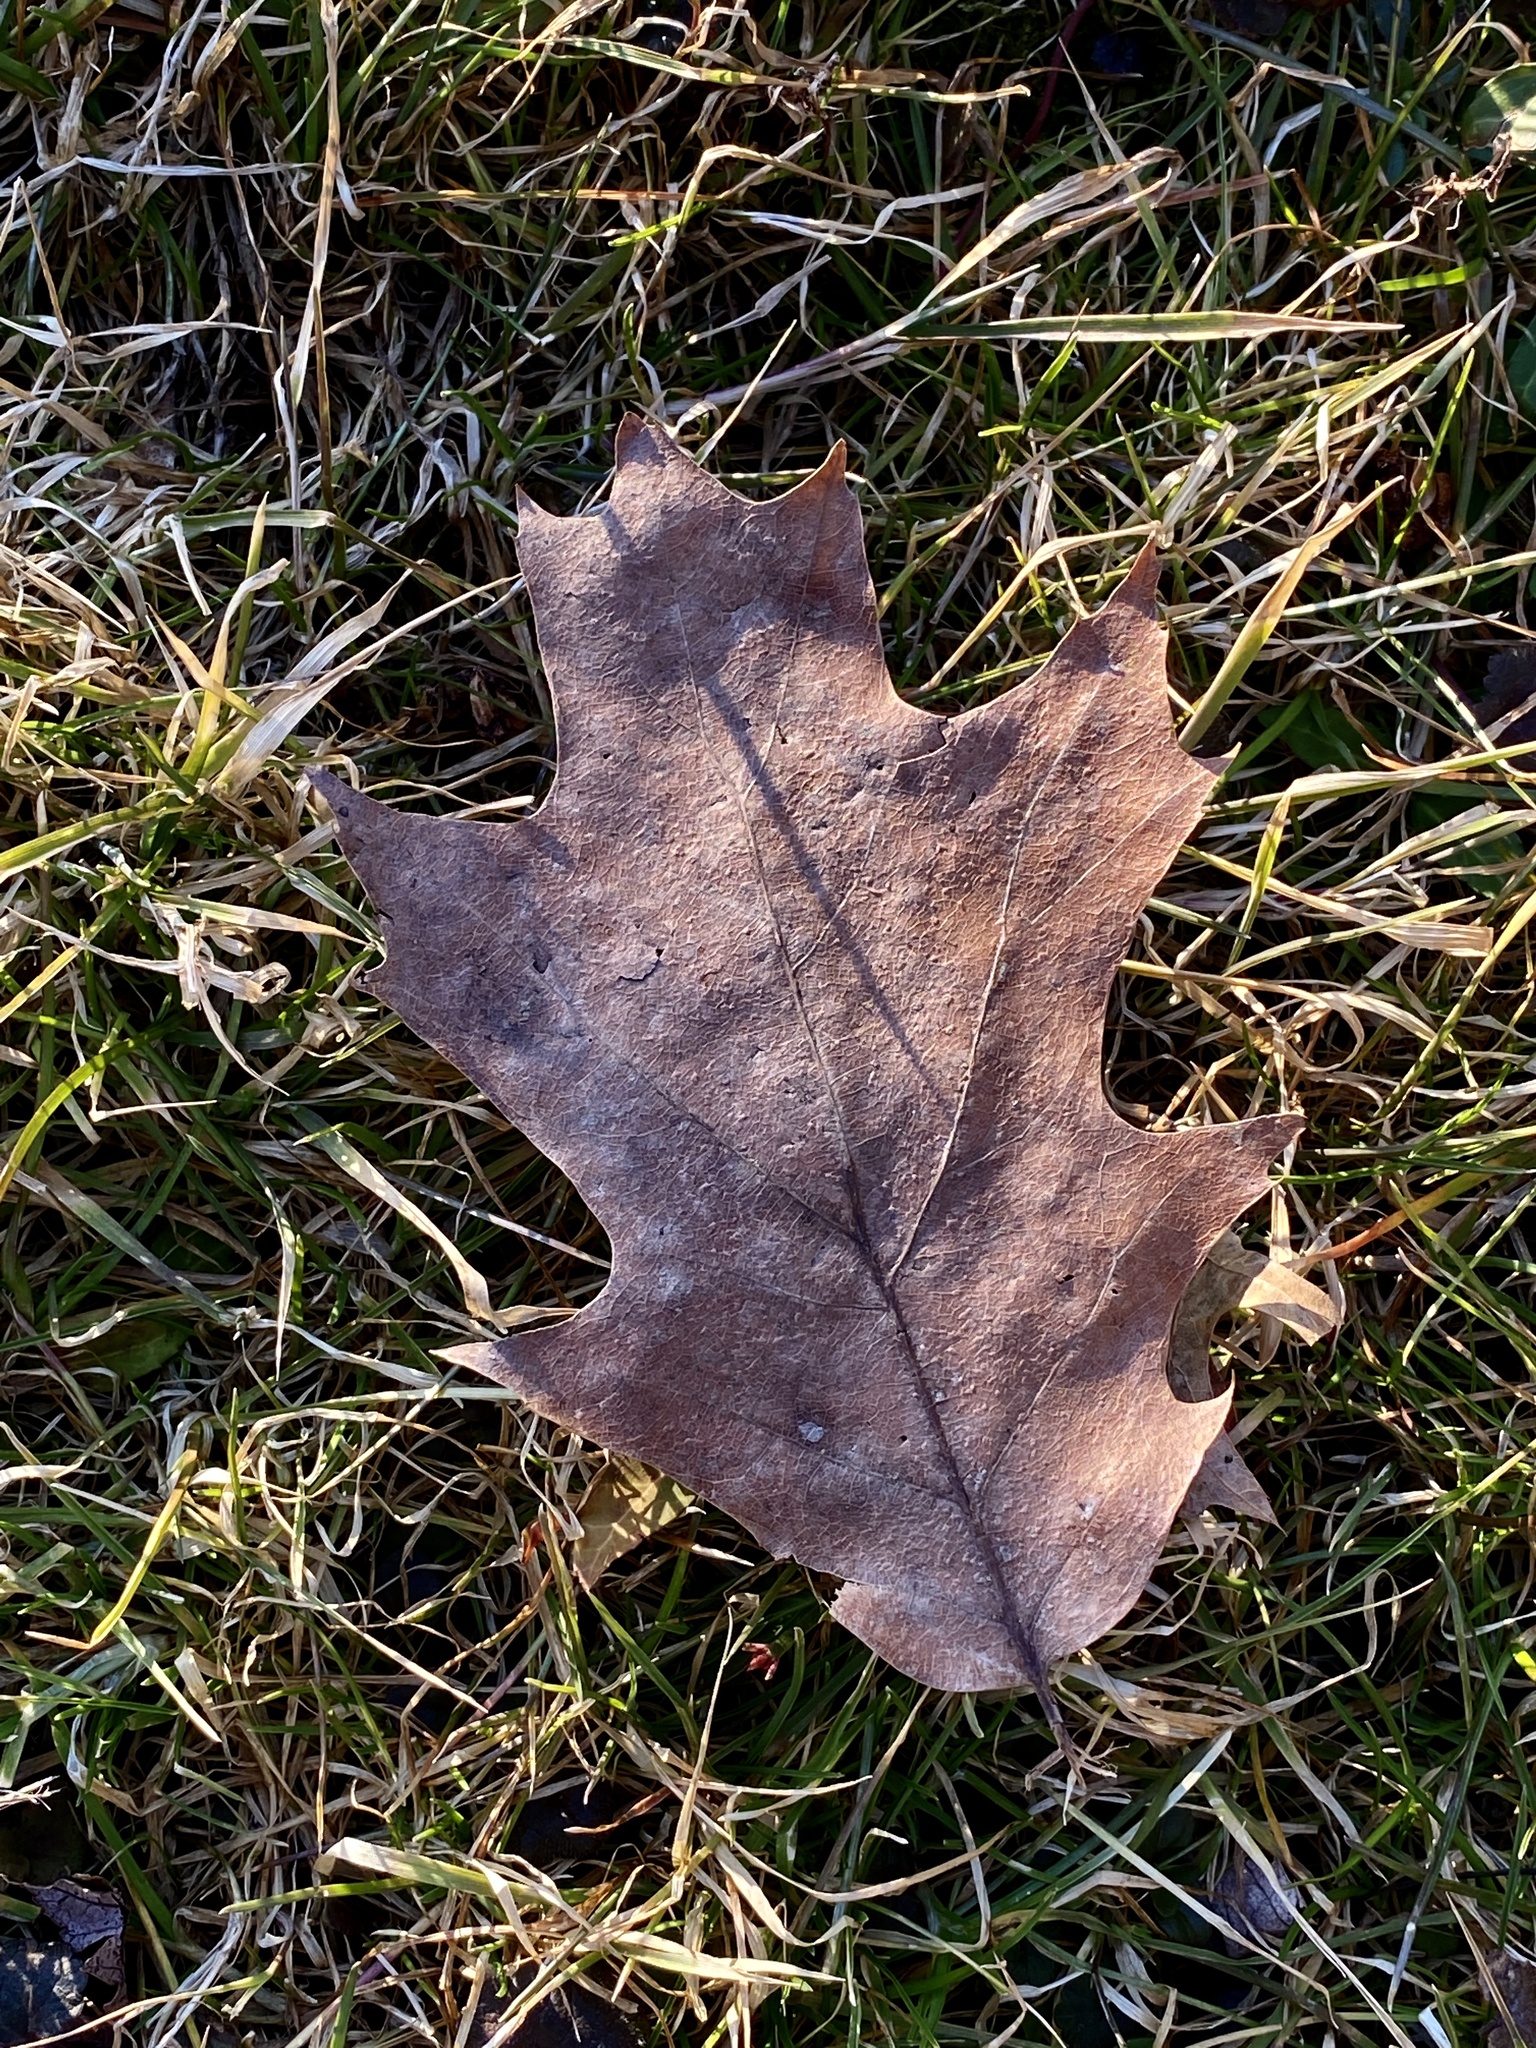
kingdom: Plantae
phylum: Tracheophyta
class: Magnoliopsida
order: Fagales
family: Fagaceae
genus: Quercus
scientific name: Quercus rubra
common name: Red oak
